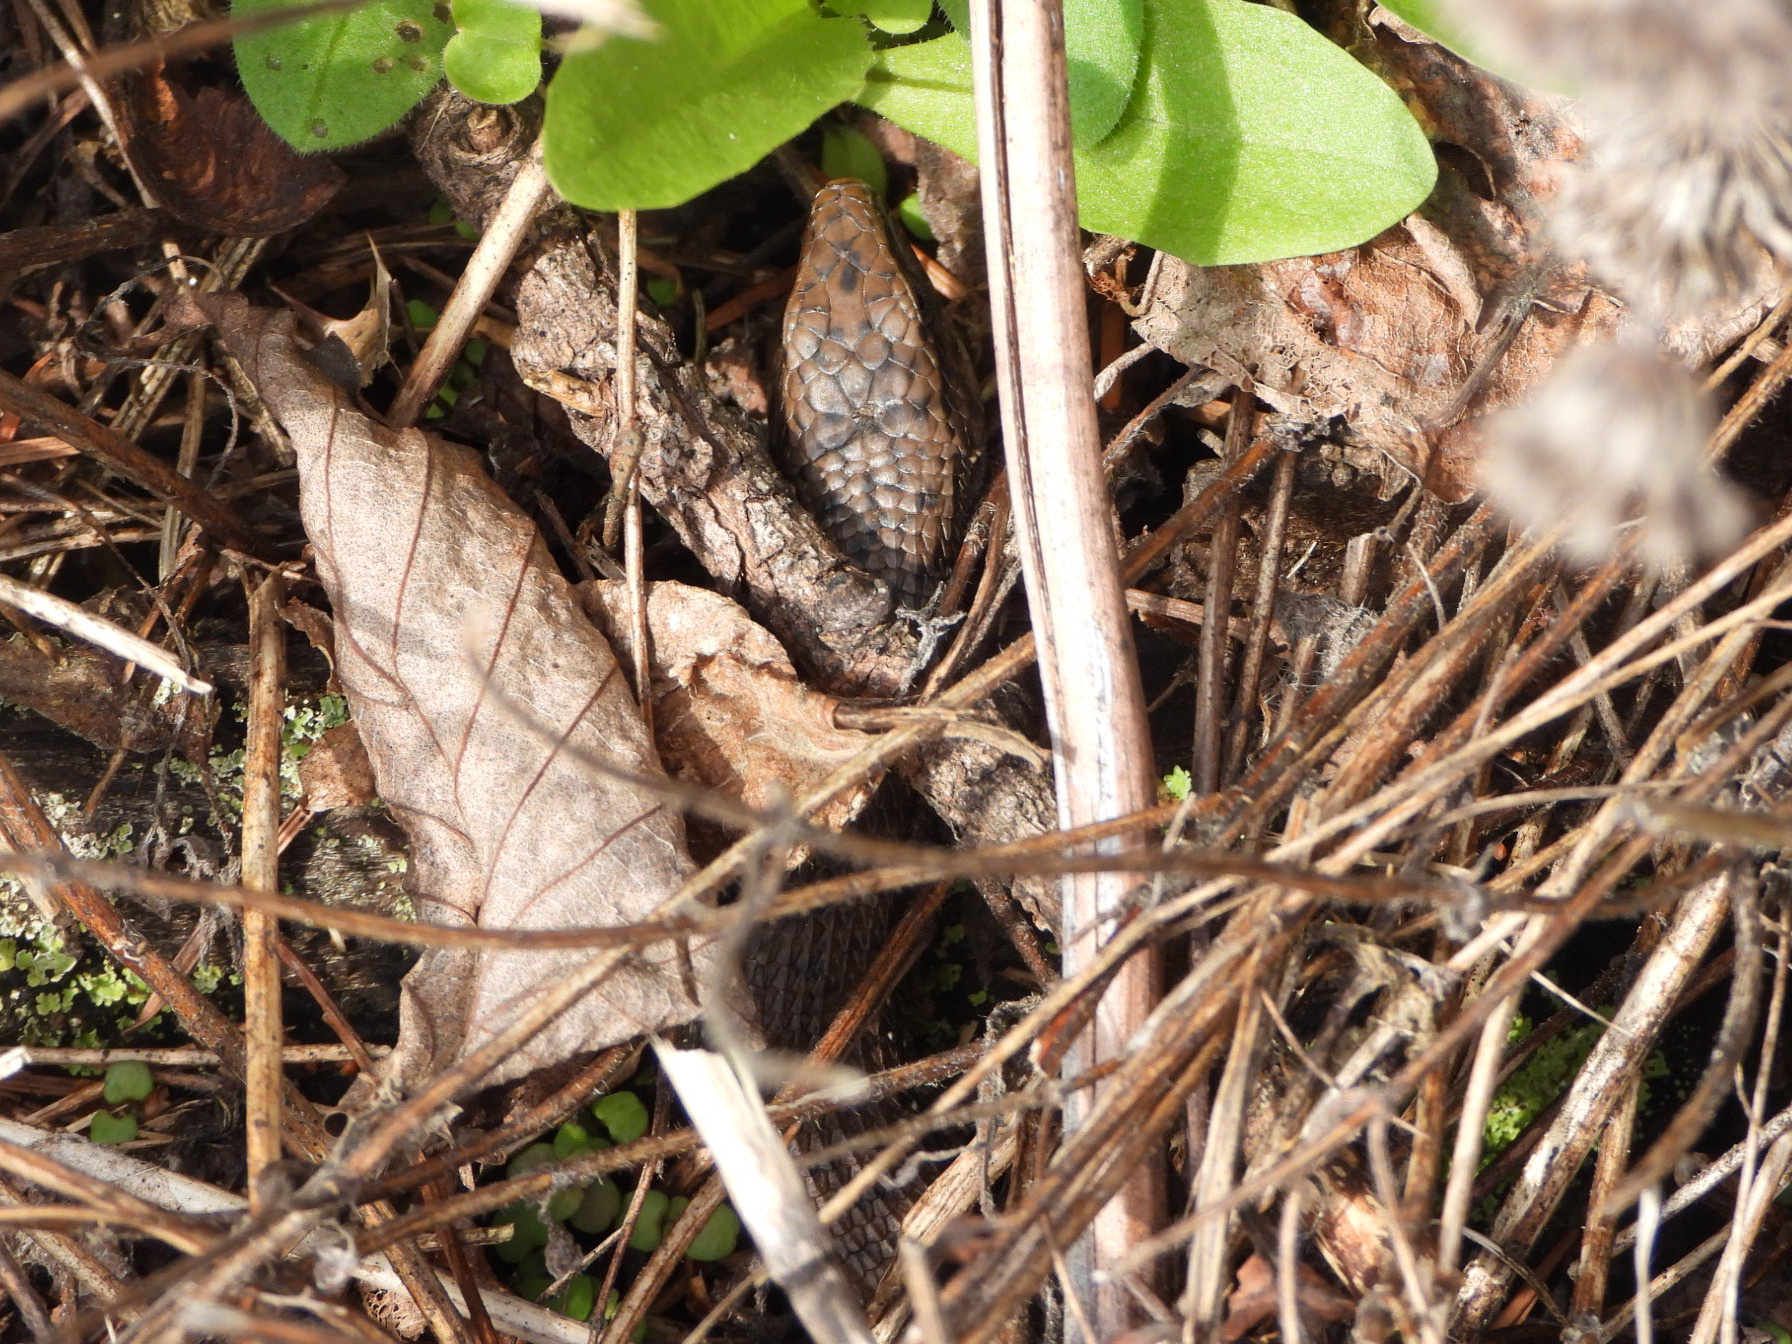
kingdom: Animalia
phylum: Chordata
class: Squamata
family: Anguidae
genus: Elgaria
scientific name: Elgaria coerulea
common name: Northern alligator lizard
